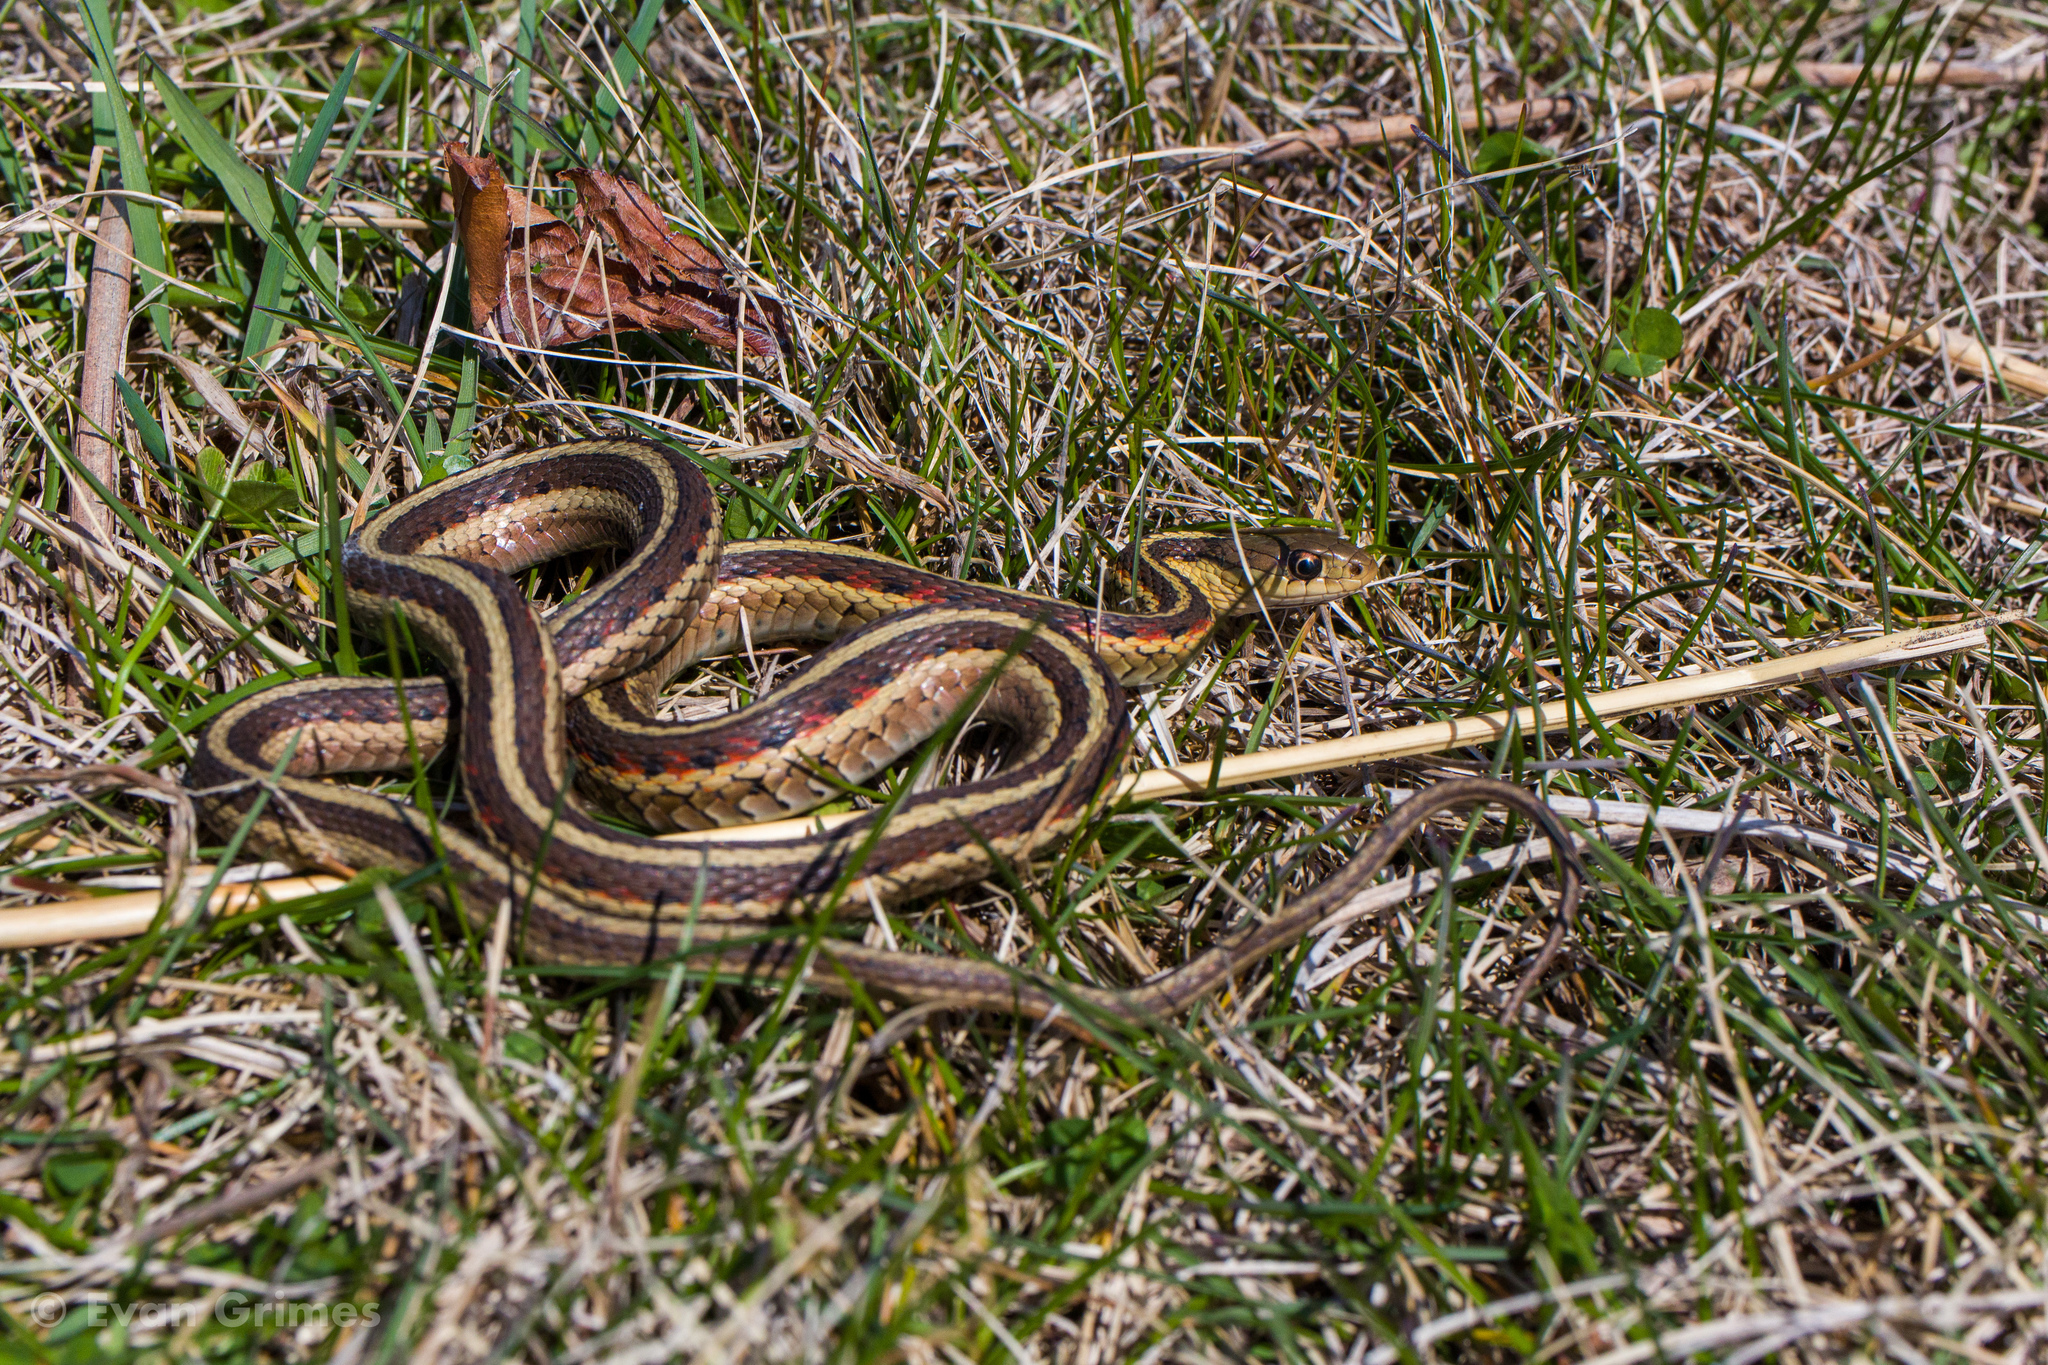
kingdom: Animalia
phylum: Chordata
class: Squamata
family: Colubridae
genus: Thamnophis
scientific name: Thamnophis sirtalis
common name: Common garter snake
